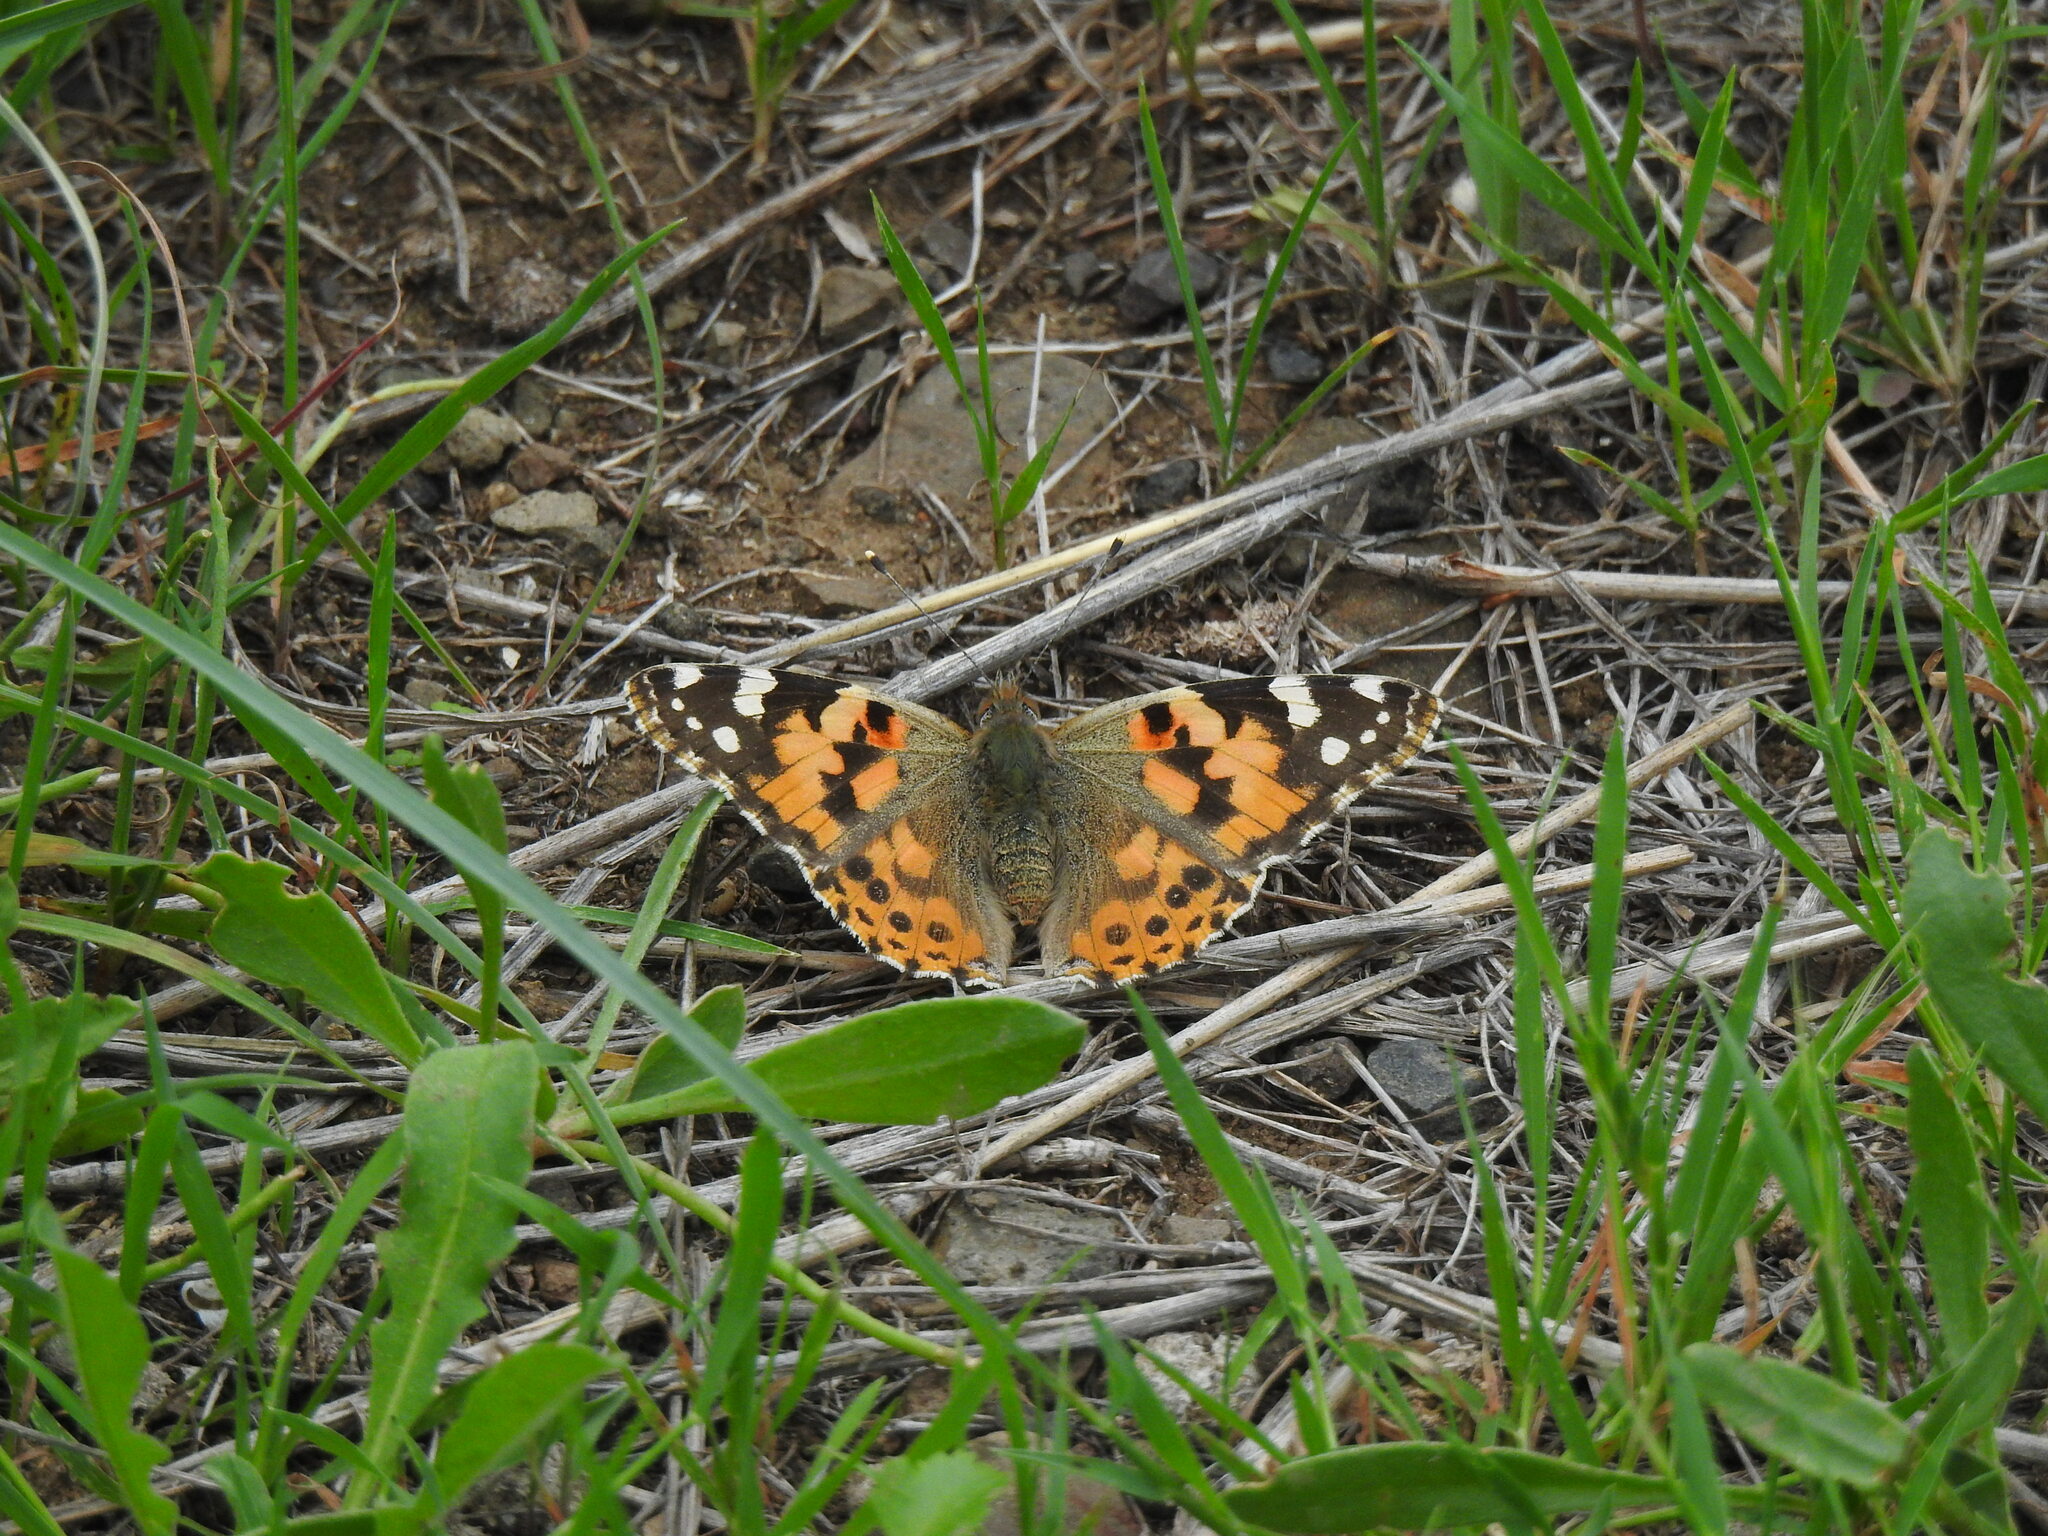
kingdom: Animalia
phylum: Arthropoda
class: Insecta
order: Lepidoptera
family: Nymphalidae
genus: Vanessa
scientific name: Vanessa cardui
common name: Painted lady
